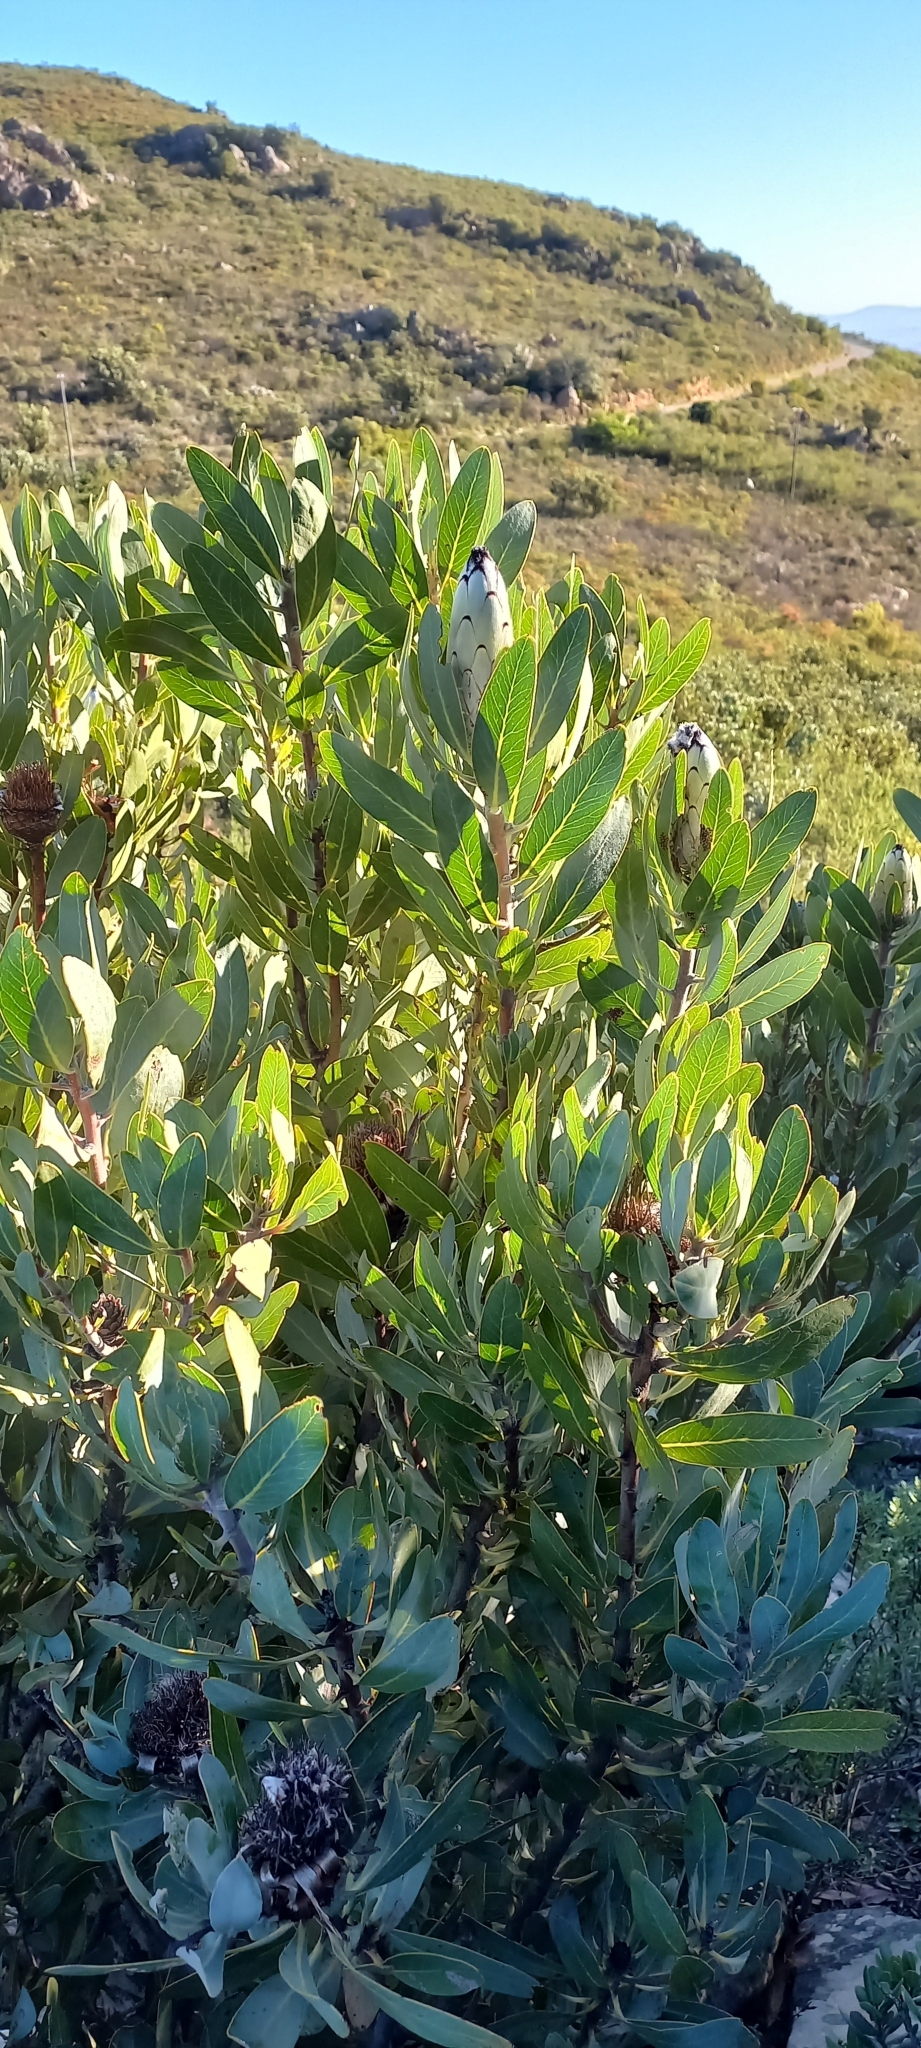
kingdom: Plantae
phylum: Tracheophyta
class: Magnoliopsida
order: Proteales
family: Proteaceae
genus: Protea
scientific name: Protea laurifolia
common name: Grey-leaf sugarbsh
